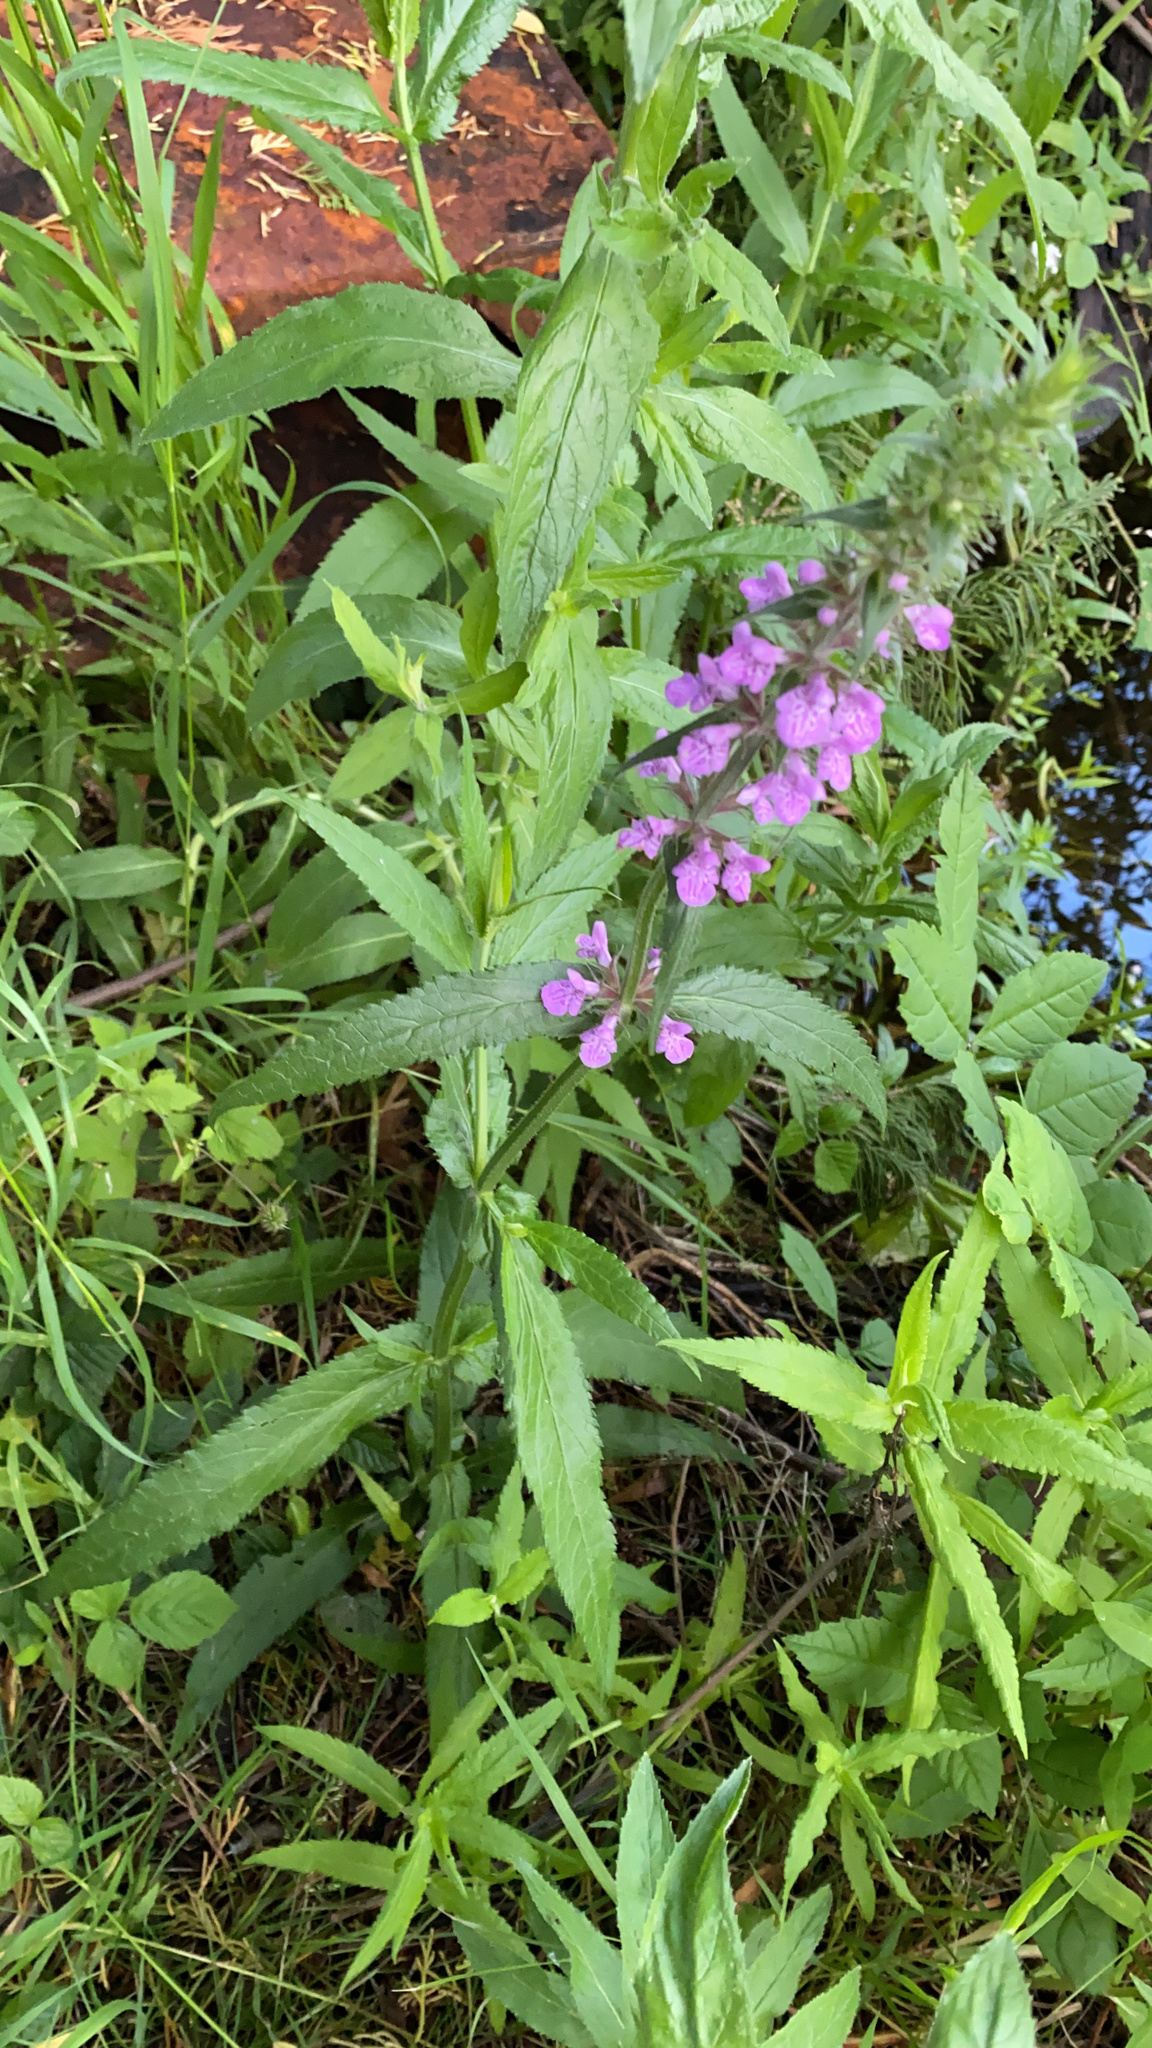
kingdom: Plantae
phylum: Tracheophyta
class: Magnoliopsida
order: Lamiales
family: Lamiaceae
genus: Stachys
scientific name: Stachys palustris
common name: Marsh woundwort
